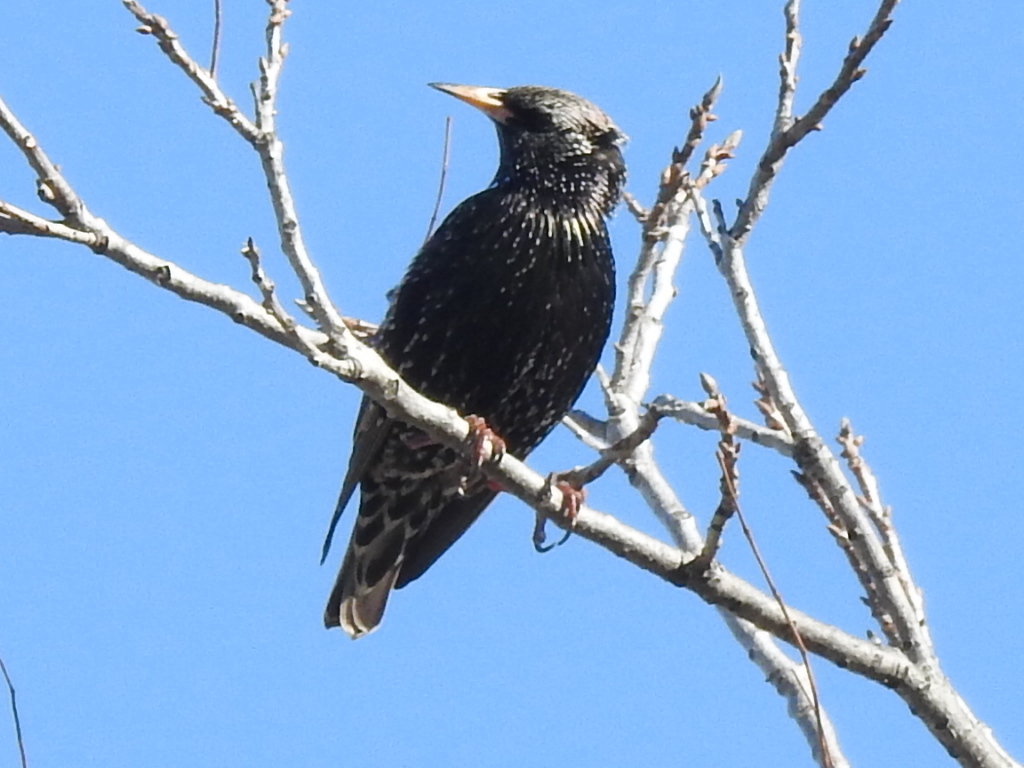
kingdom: Animalia
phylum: Chordata
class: Aves
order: Passeriformes
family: Sturnidae
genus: Sturnus
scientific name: Sturnus vulgaris
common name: Common starling
